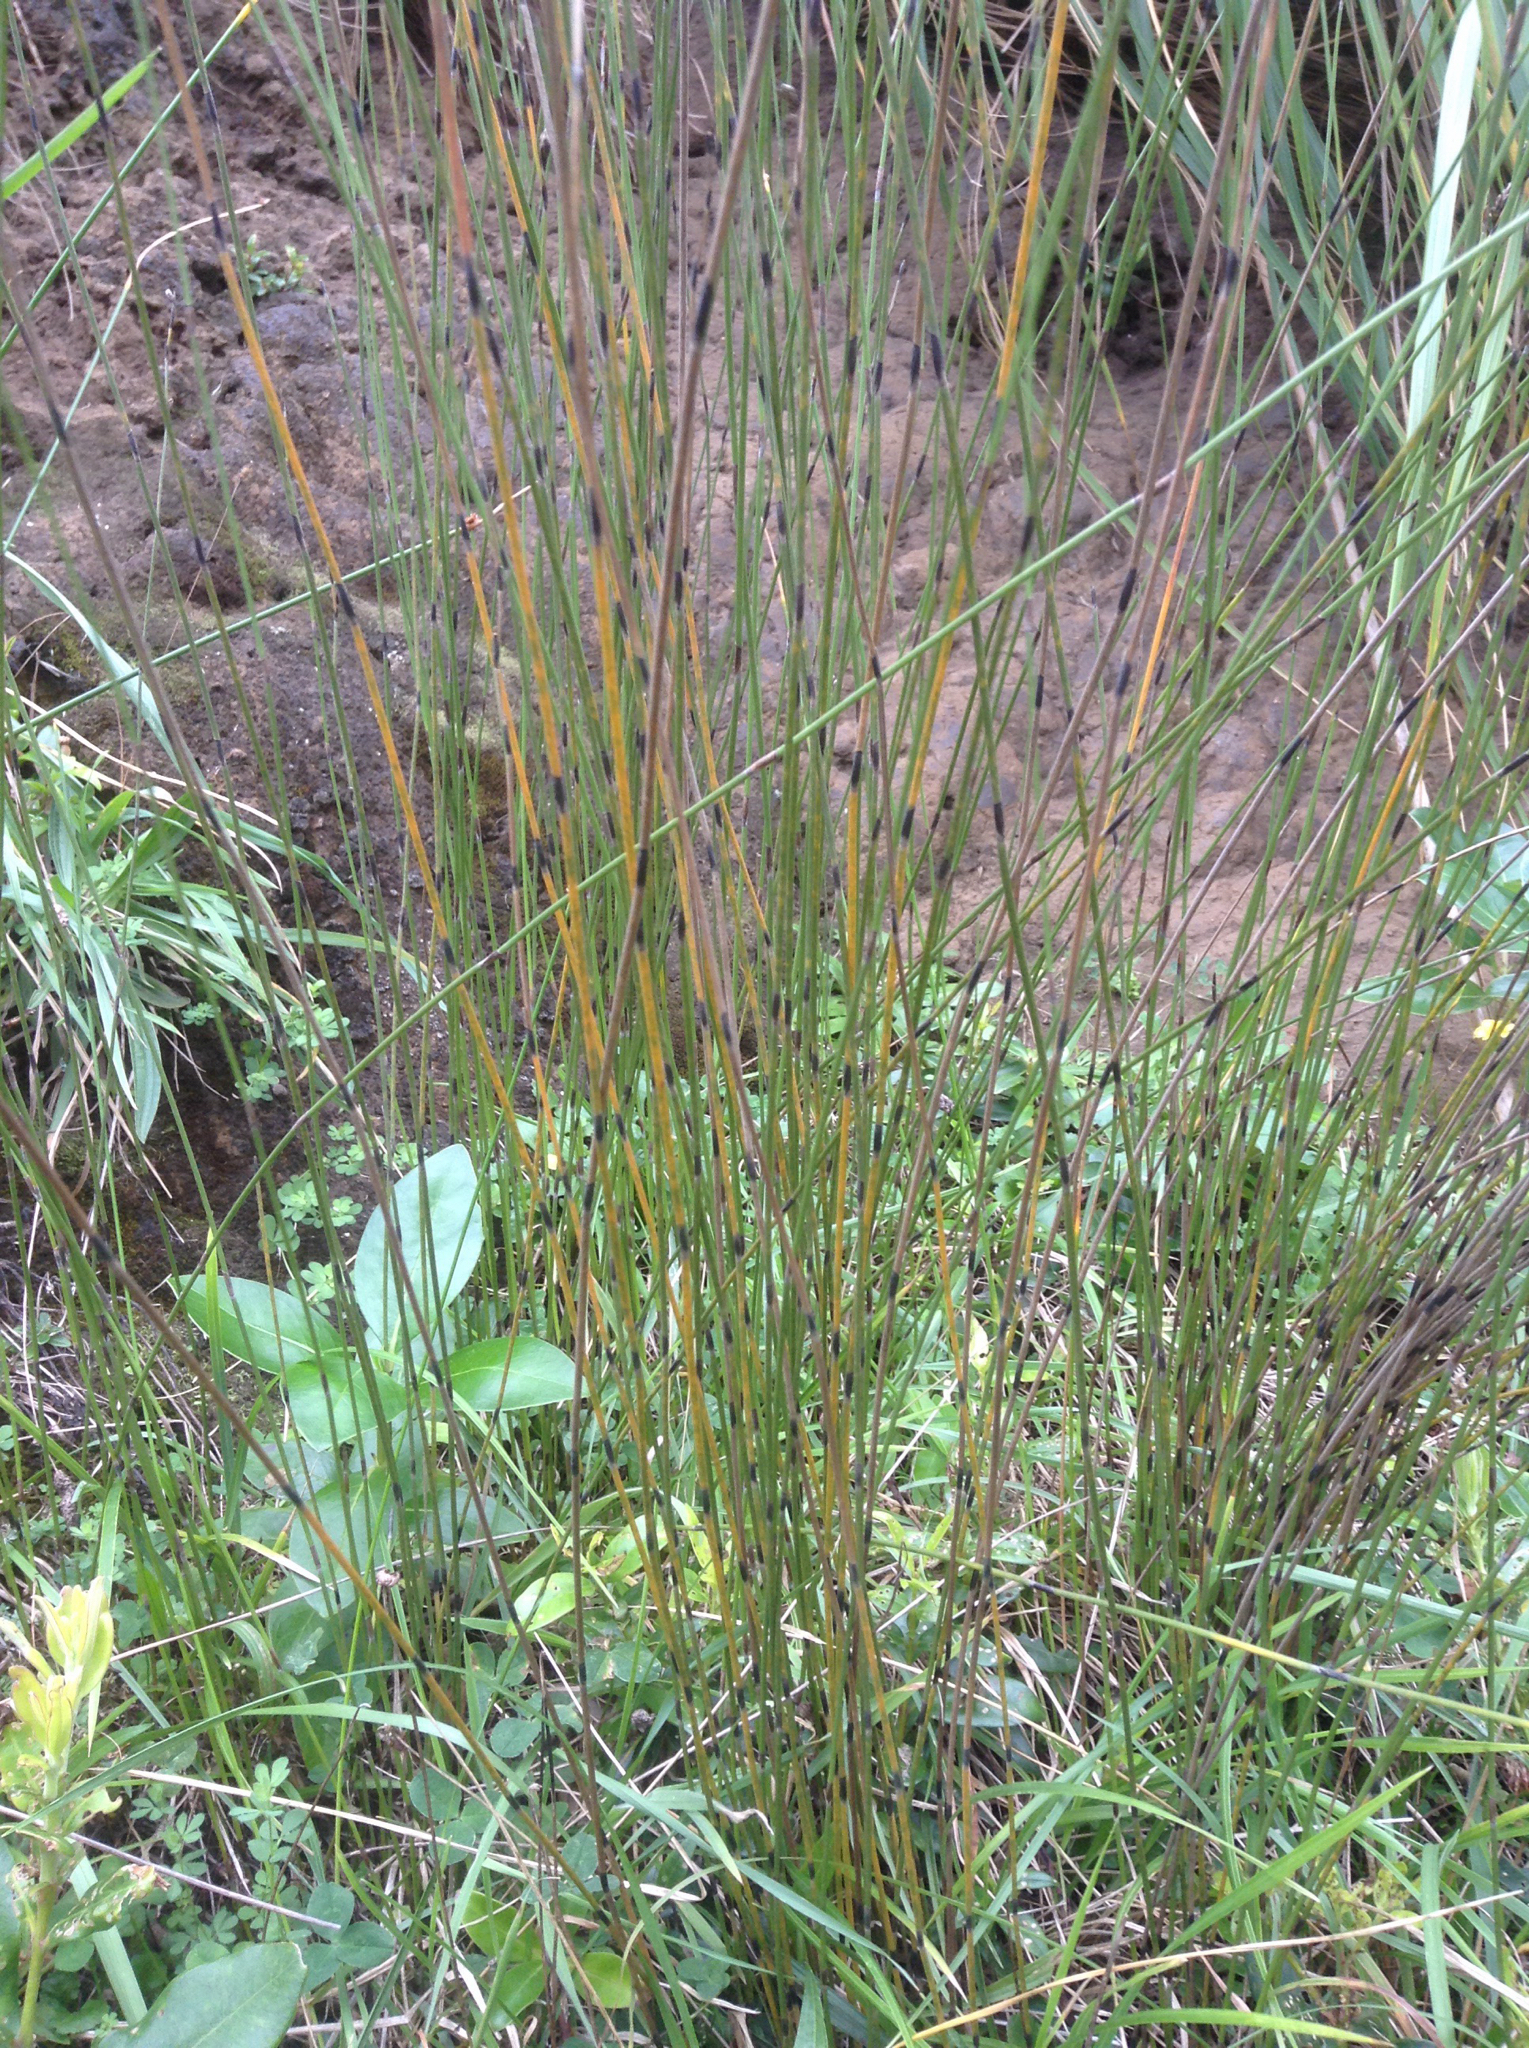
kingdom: Plantae
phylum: Tracheophyta
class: Liliopsida
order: Poales
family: Restionaceae
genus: Apodasmia
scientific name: Apodasmia similis
